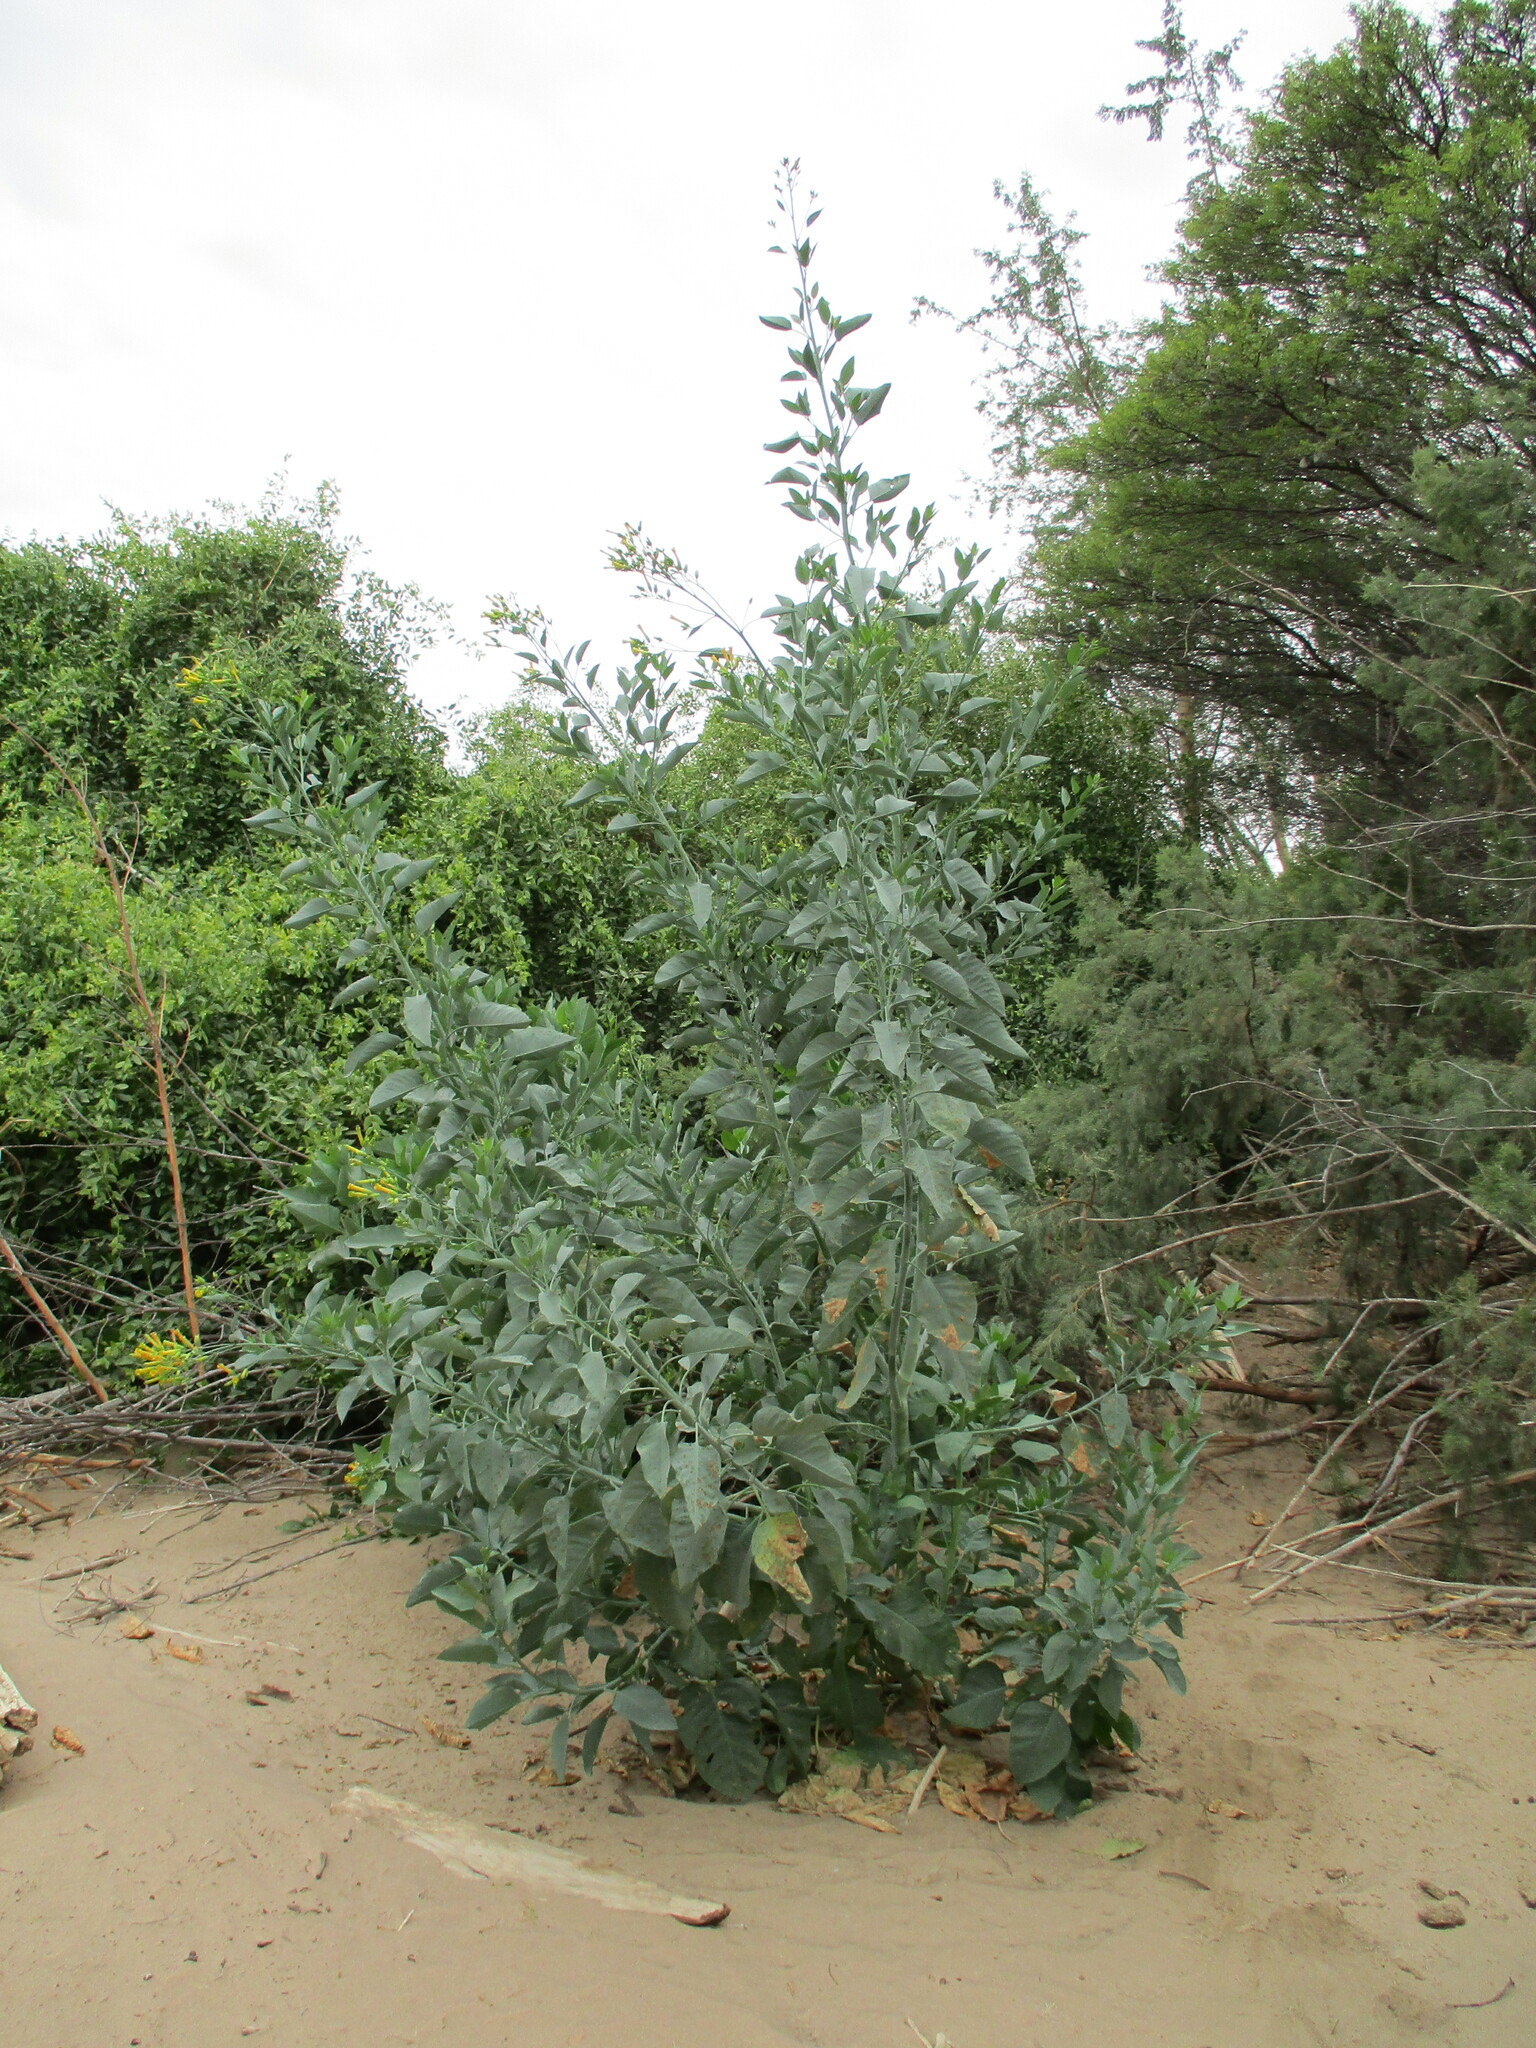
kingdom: Plantae
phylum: Tracheophyta
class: Magnoliopsida
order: Solanales
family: Solanaceae
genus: Nicotiana
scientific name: Nicotiana glauca
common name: Tree tobacco
